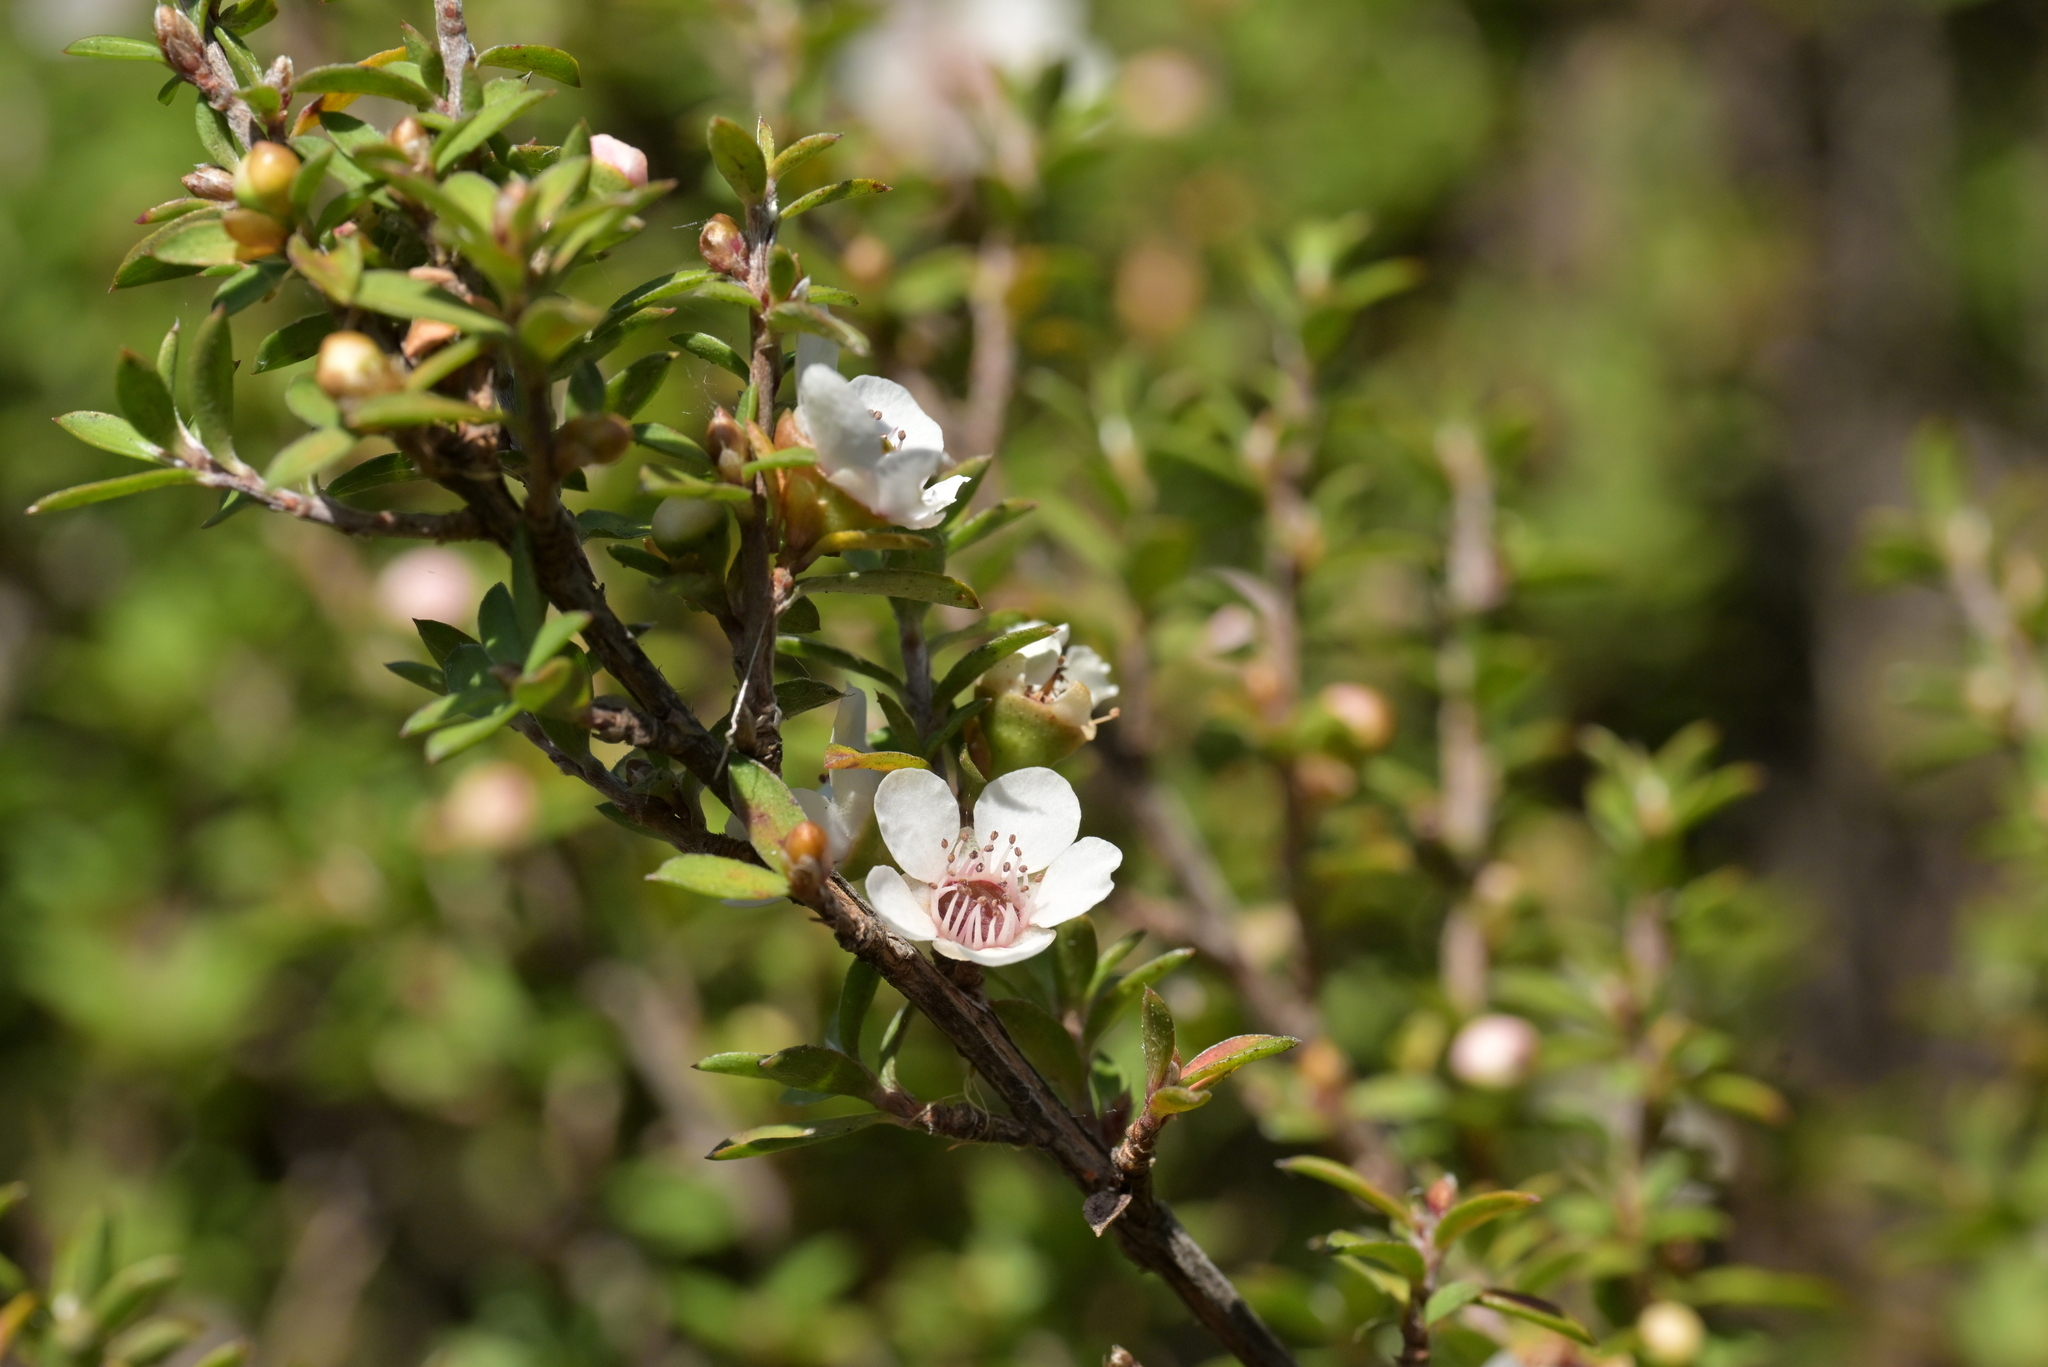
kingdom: Plantae
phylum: Tracheophyta
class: Magnoliopsida
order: Myrtales
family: Myrtaceae
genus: Leptospermum
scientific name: Leptospermum scoparium
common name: Broom tea-tree
